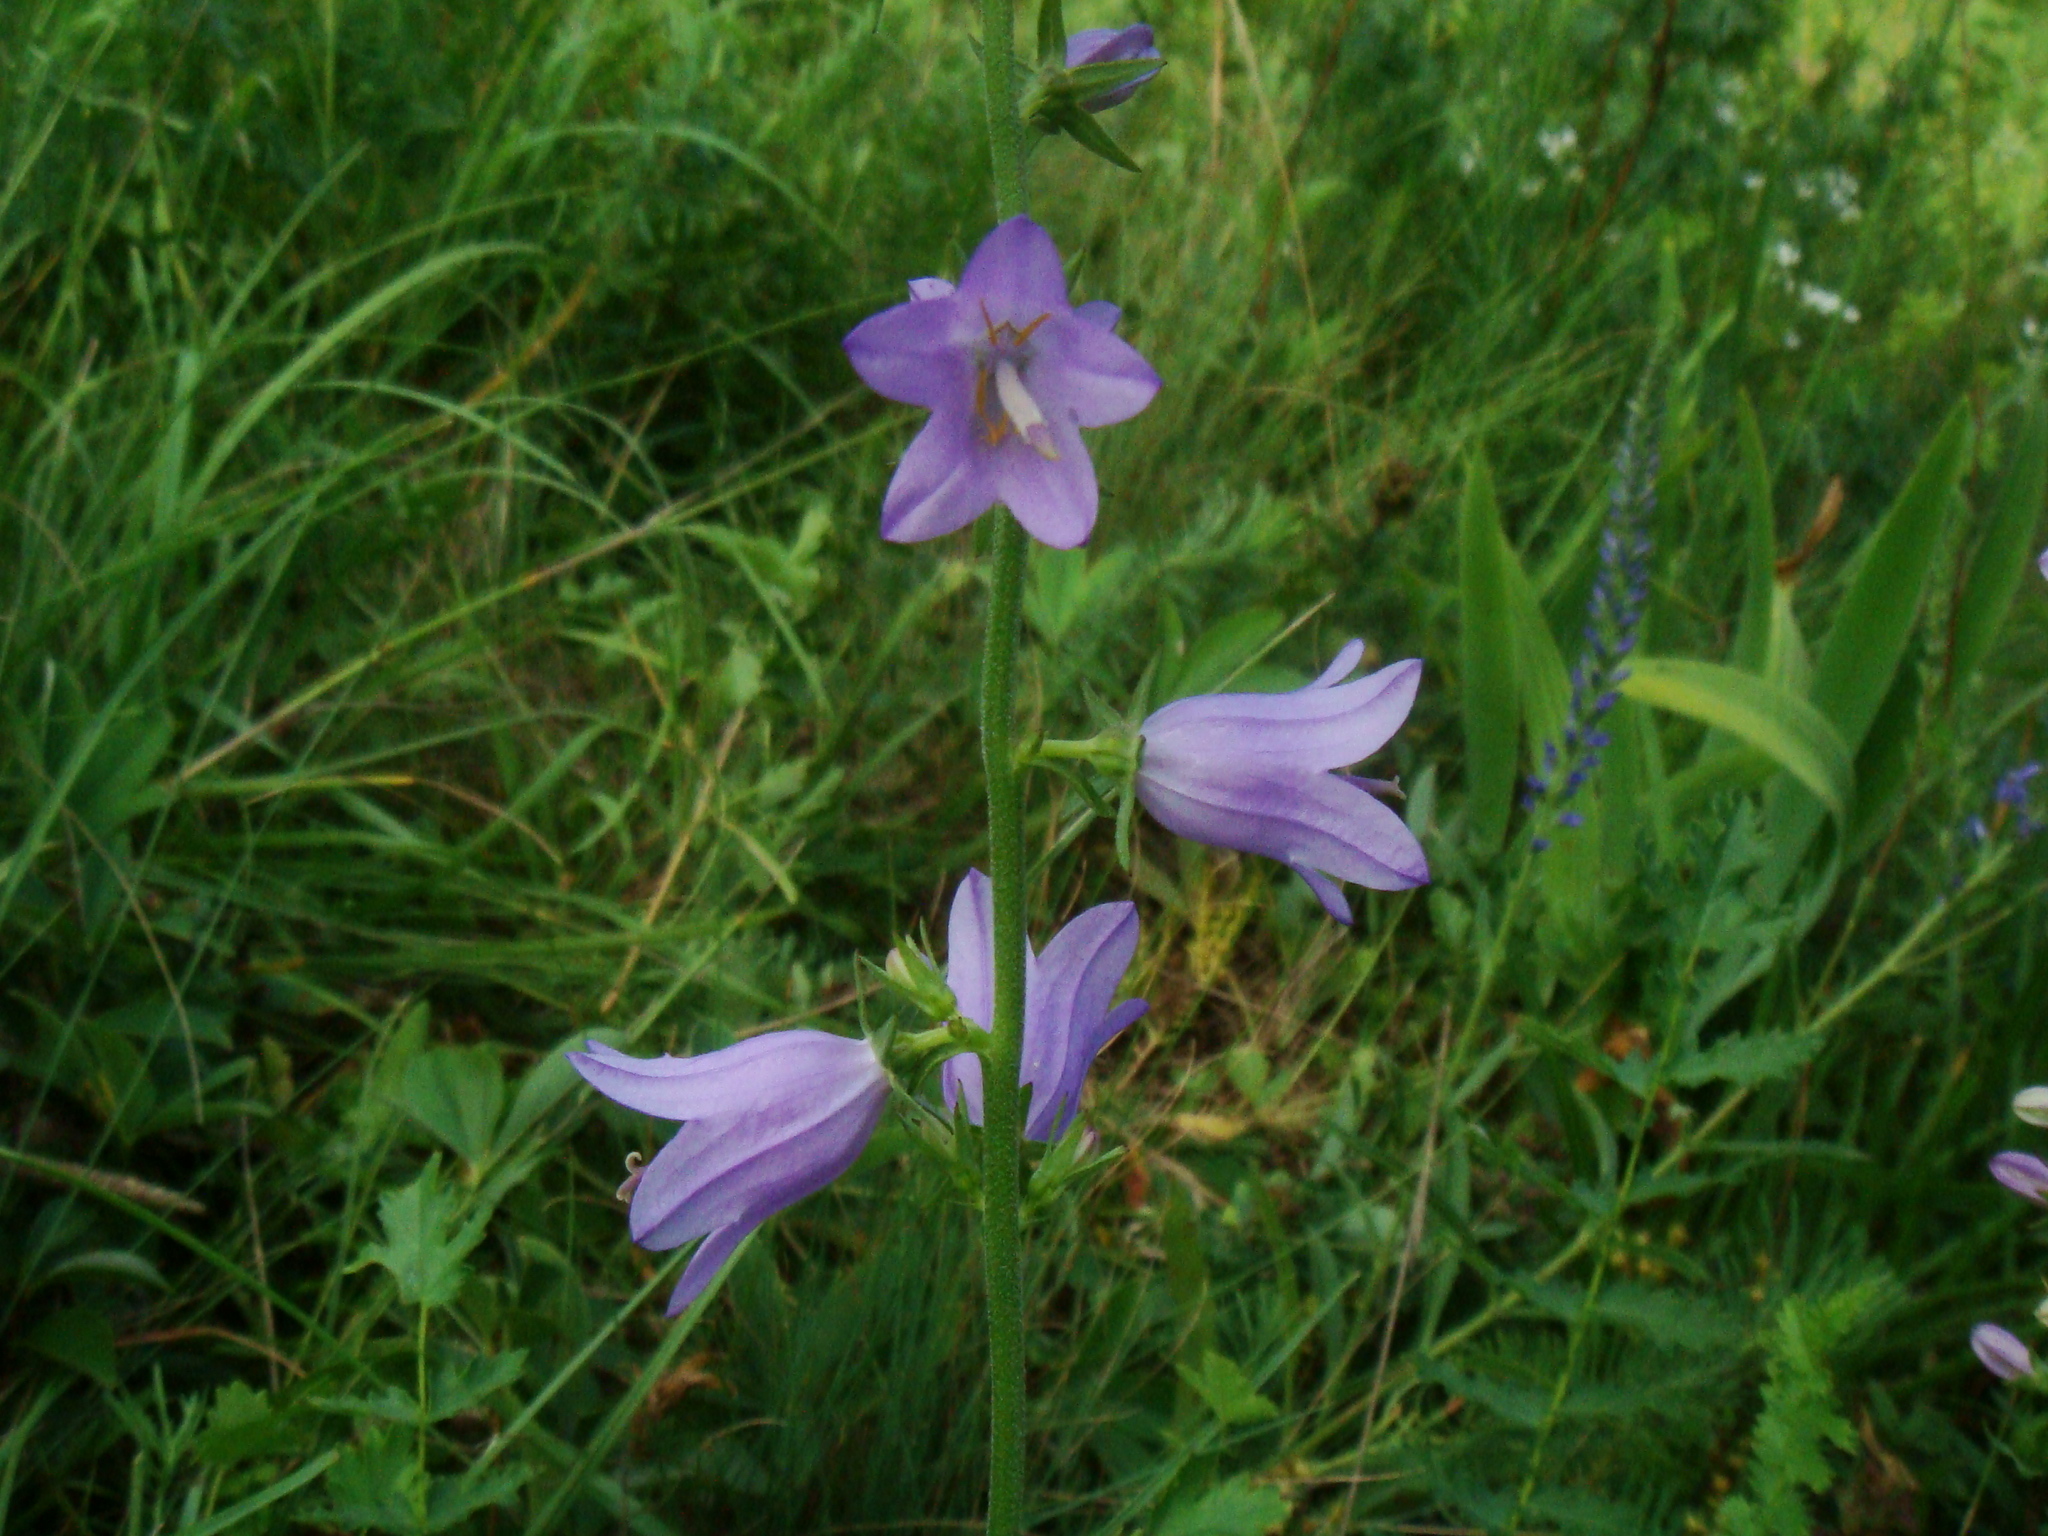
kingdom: Plantae
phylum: Tracheophyta
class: Magnoliopsida
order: Asterales
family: Campanulaceae
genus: Campanula
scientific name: Campanula bononiensis
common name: Pale bellflower
